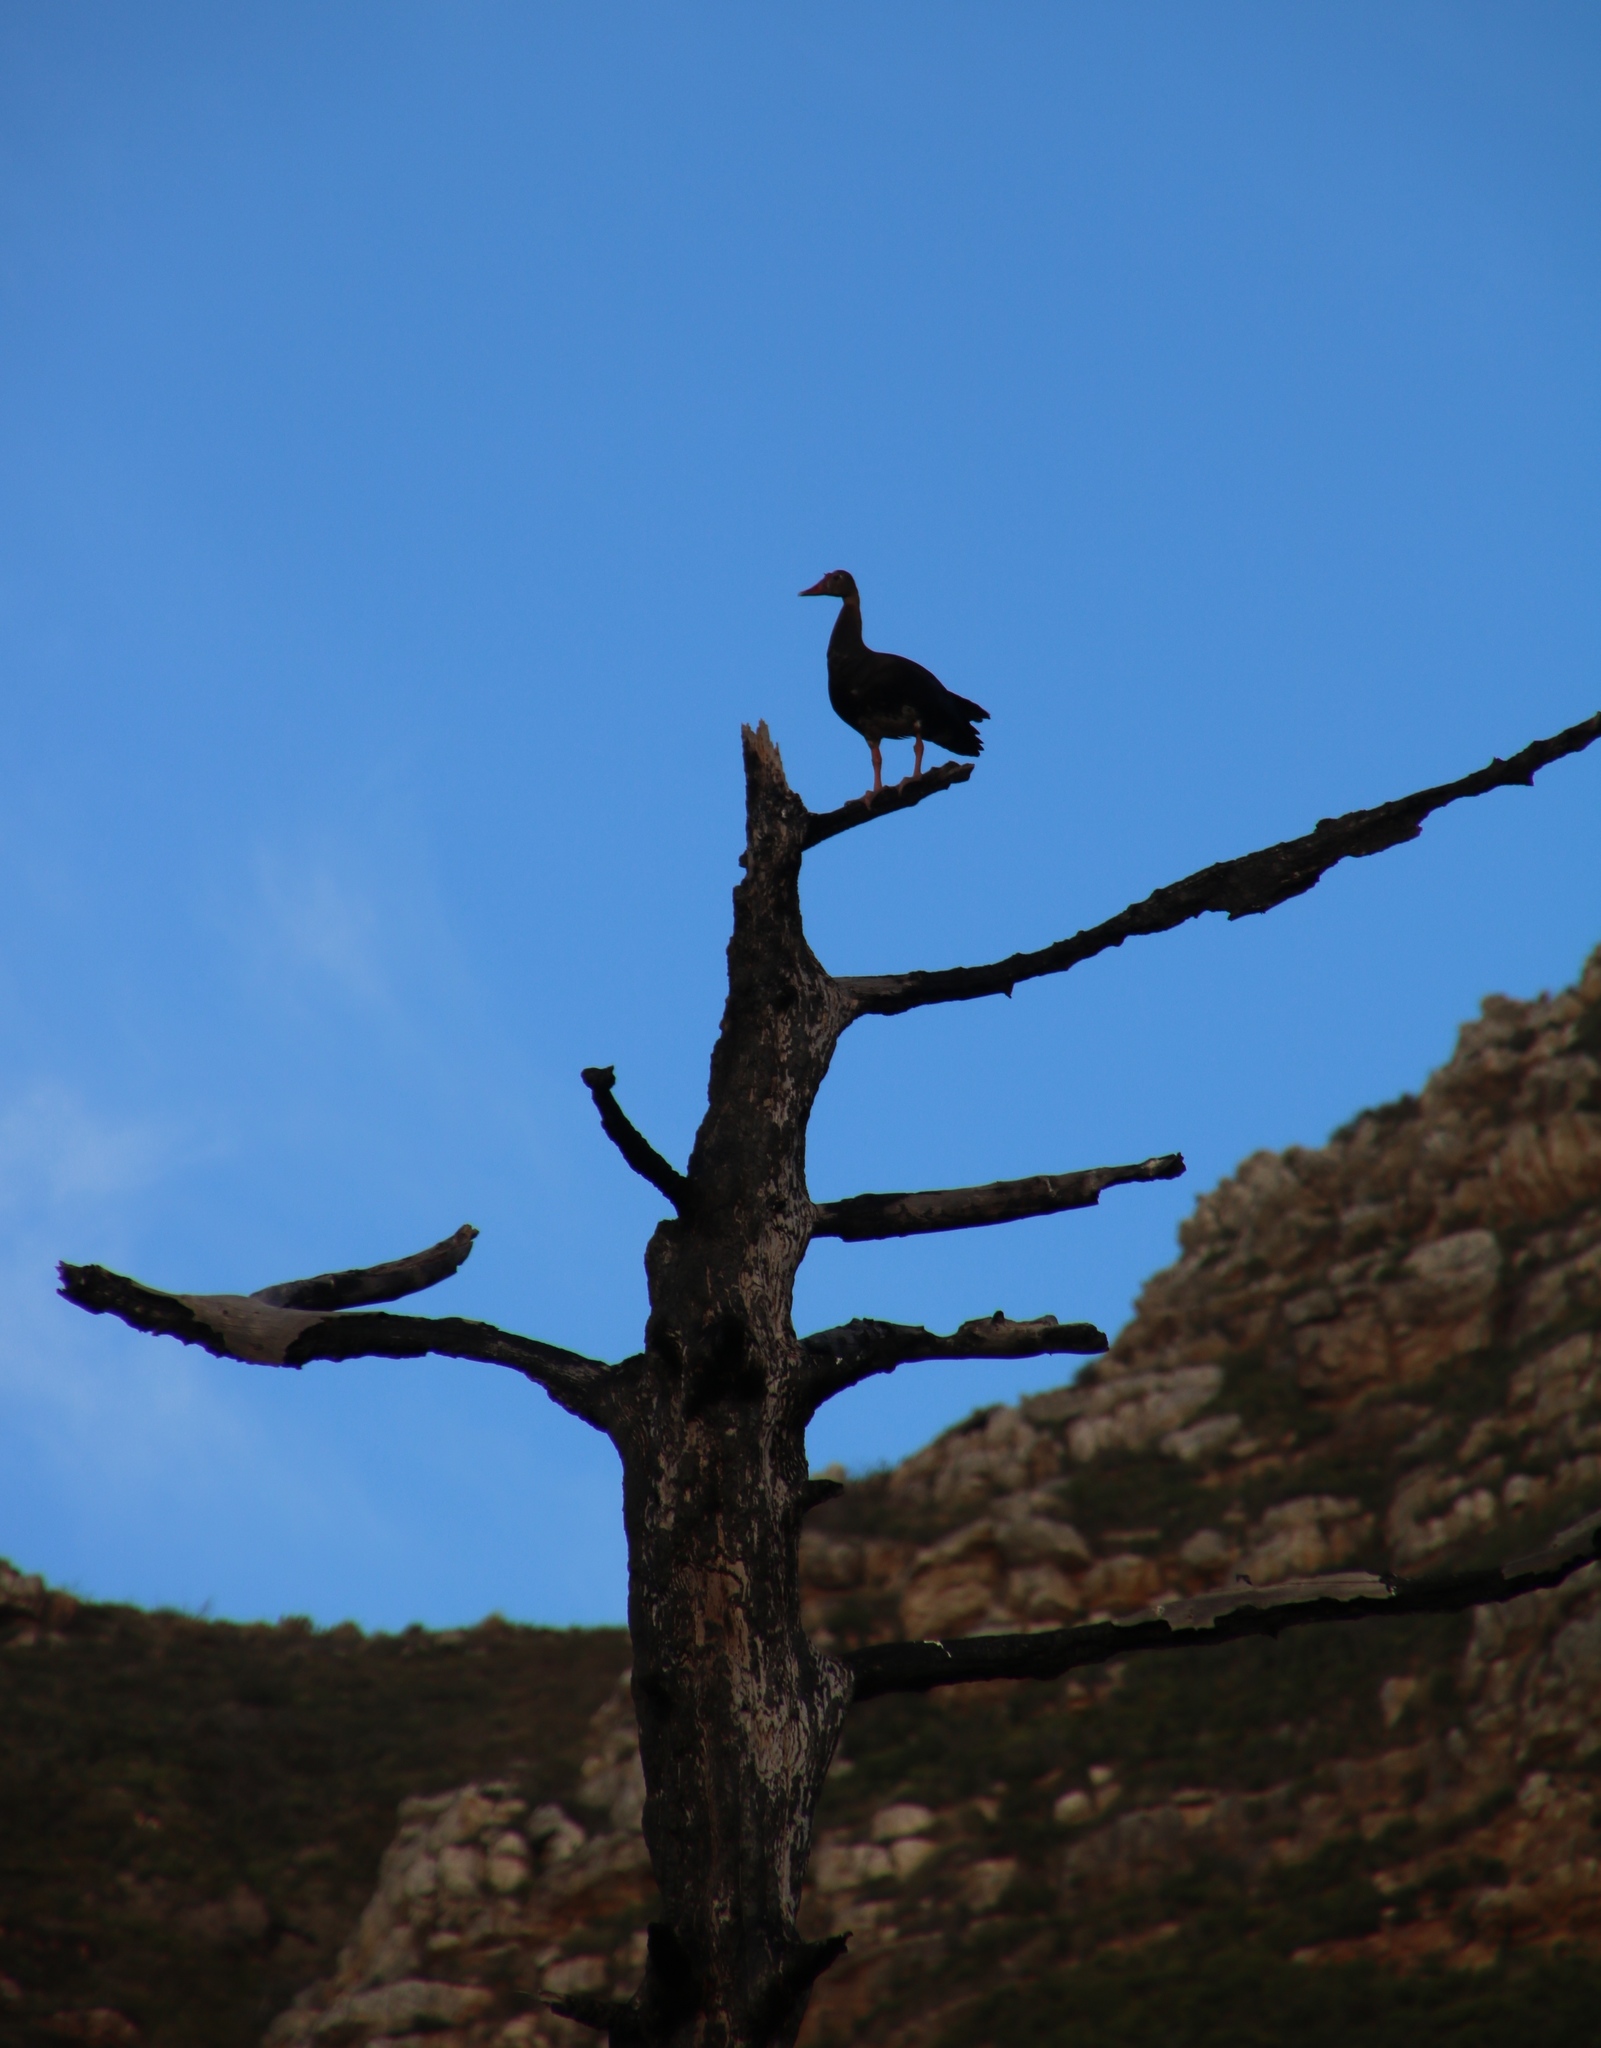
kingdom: Animalia
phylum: Chordata
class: Aves
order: Anseriformes
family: Anatidae
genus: Plectropterus
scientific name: Plectropterus gambensis
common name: Spur-winged goose
